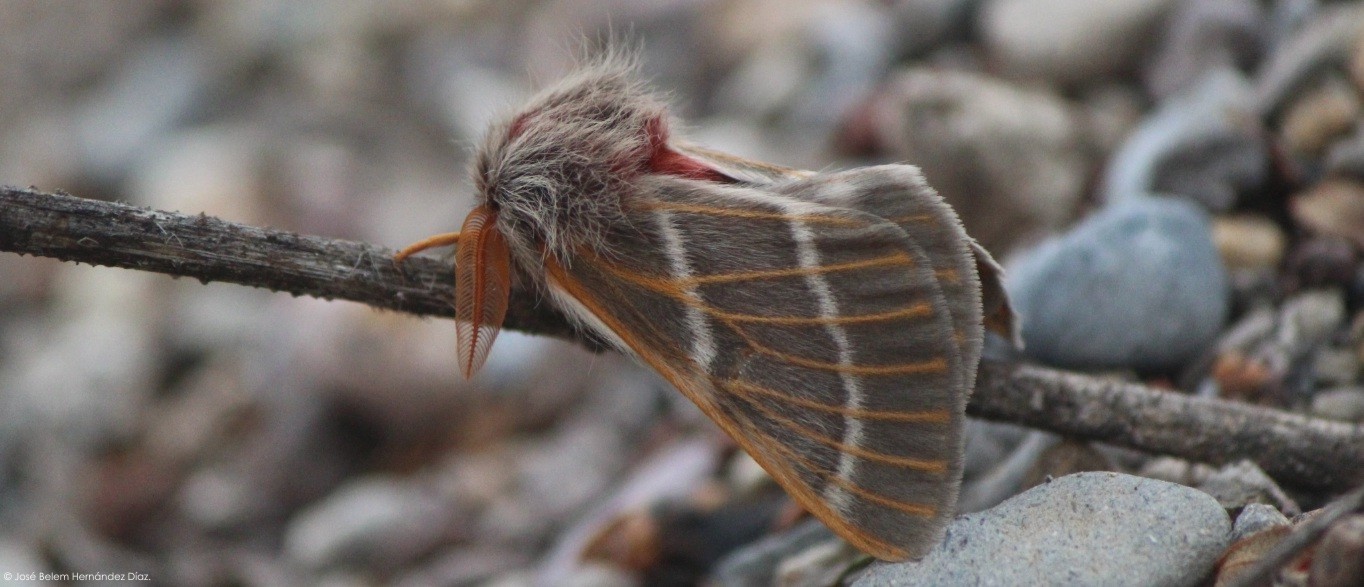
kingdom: Animalia
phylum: Arthropoda
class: Insecta
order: Lepidoptera
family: Saturniidae
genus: Hemileuca
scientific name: Hemileuca rubridorsa
